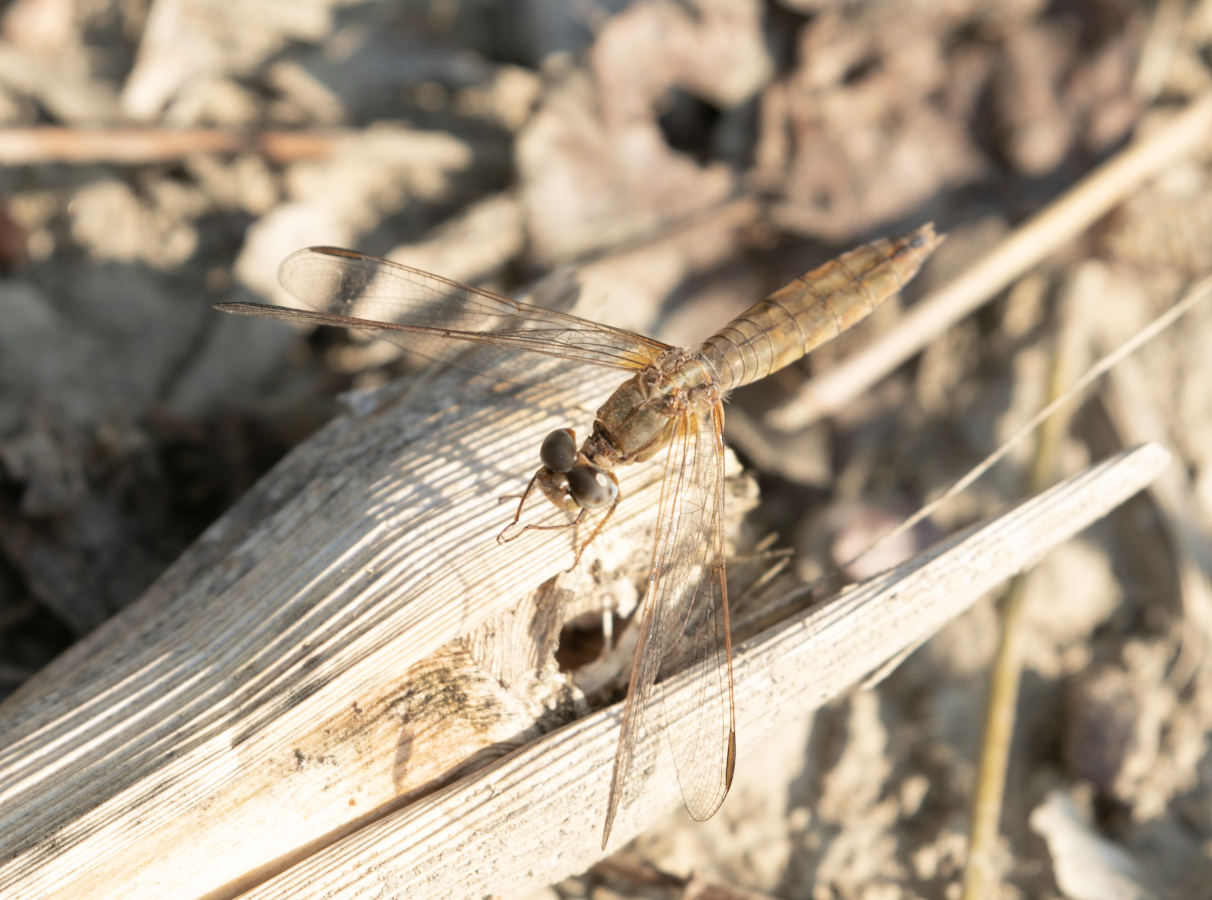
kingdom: Animalia
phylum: Arthropoda
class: Insecta
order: Odonata
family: Libellulidae
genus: Crocothemis
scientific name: Crocothemis erythraea
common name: Scarlet dragonfly
